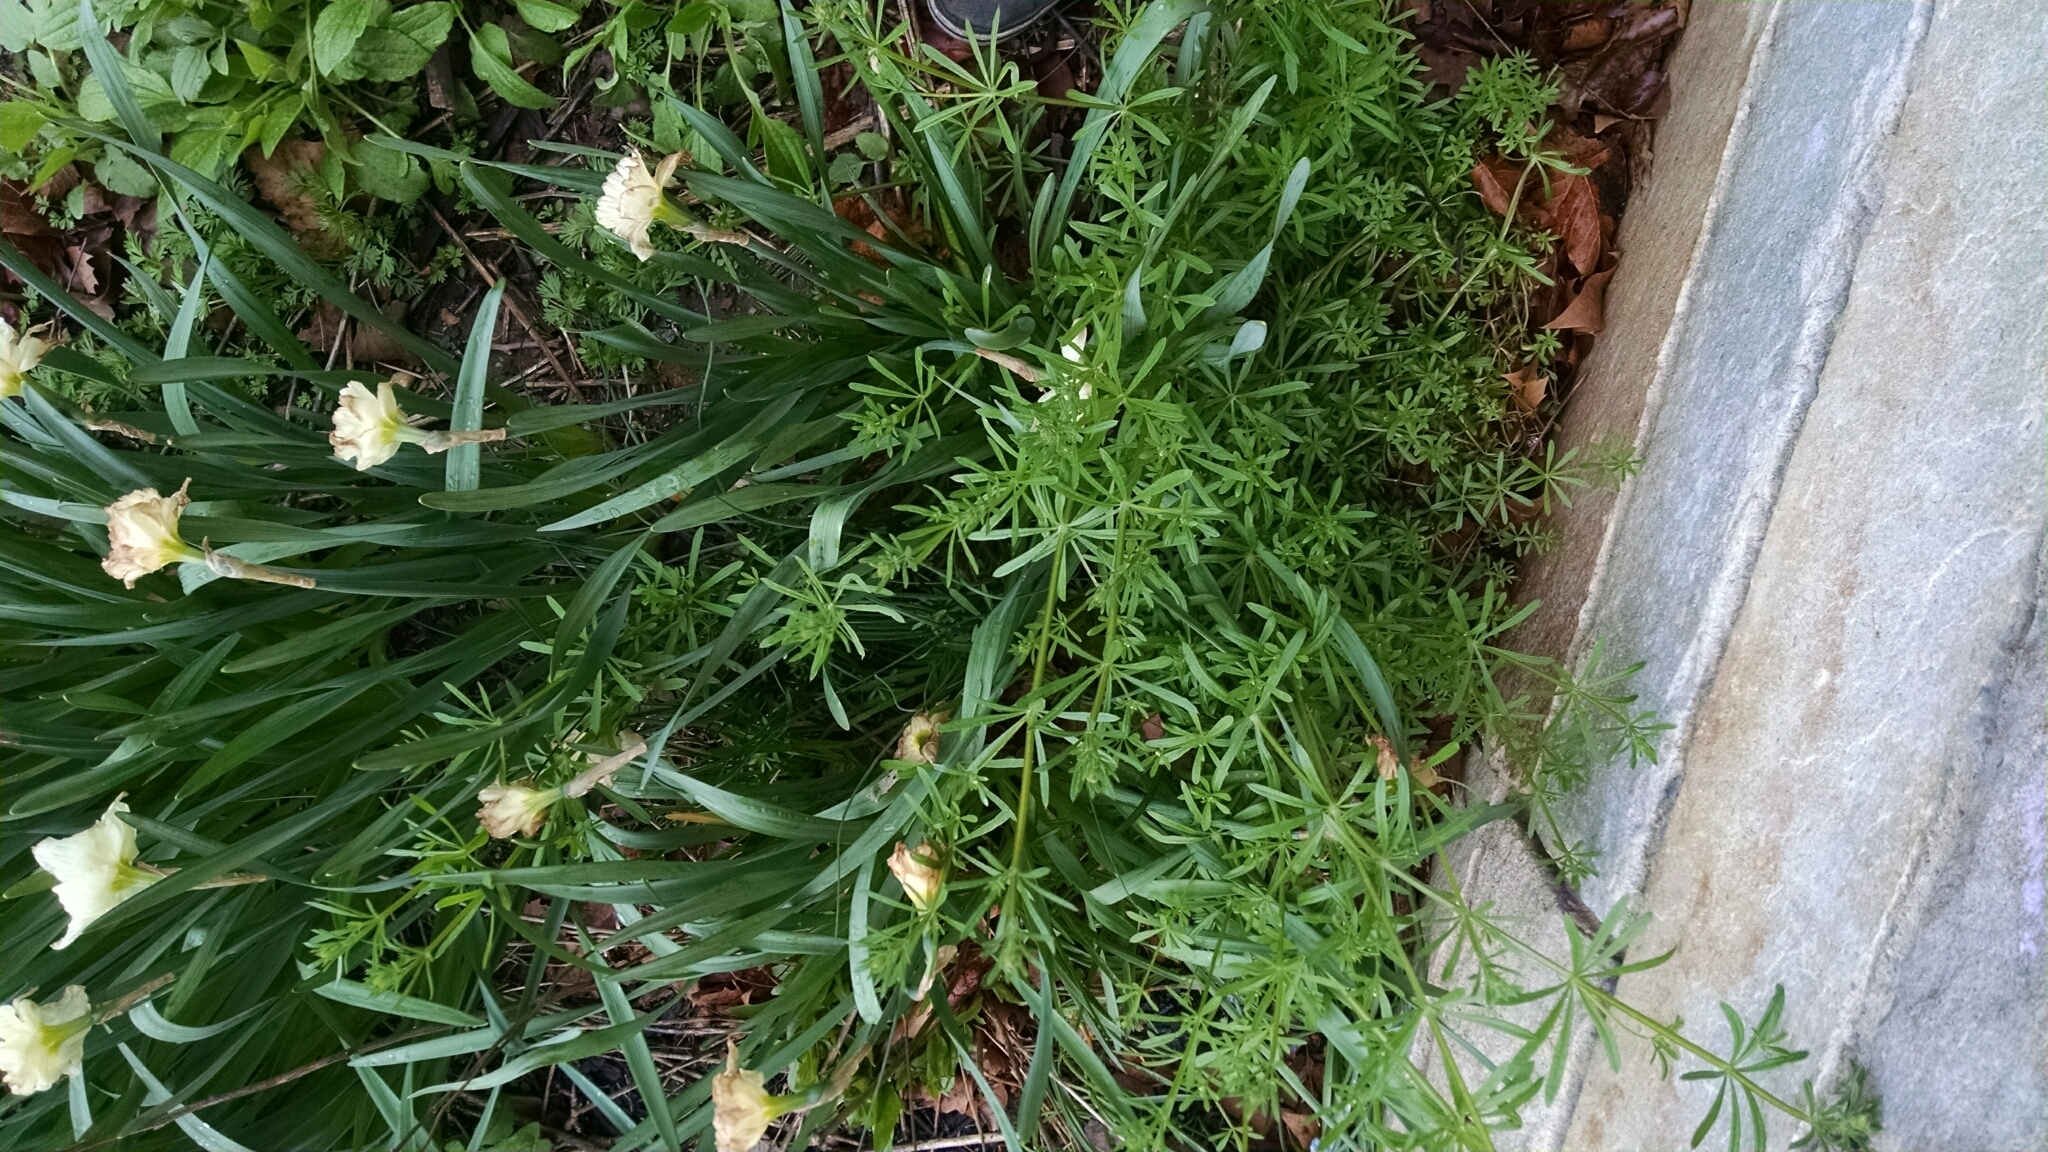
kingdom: Plantae
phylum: Tracheophyta
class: Magnoliopsida
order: Gentianales
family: Rubiaceae
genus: Galium
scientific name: Galium aparine
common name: Cleavers
